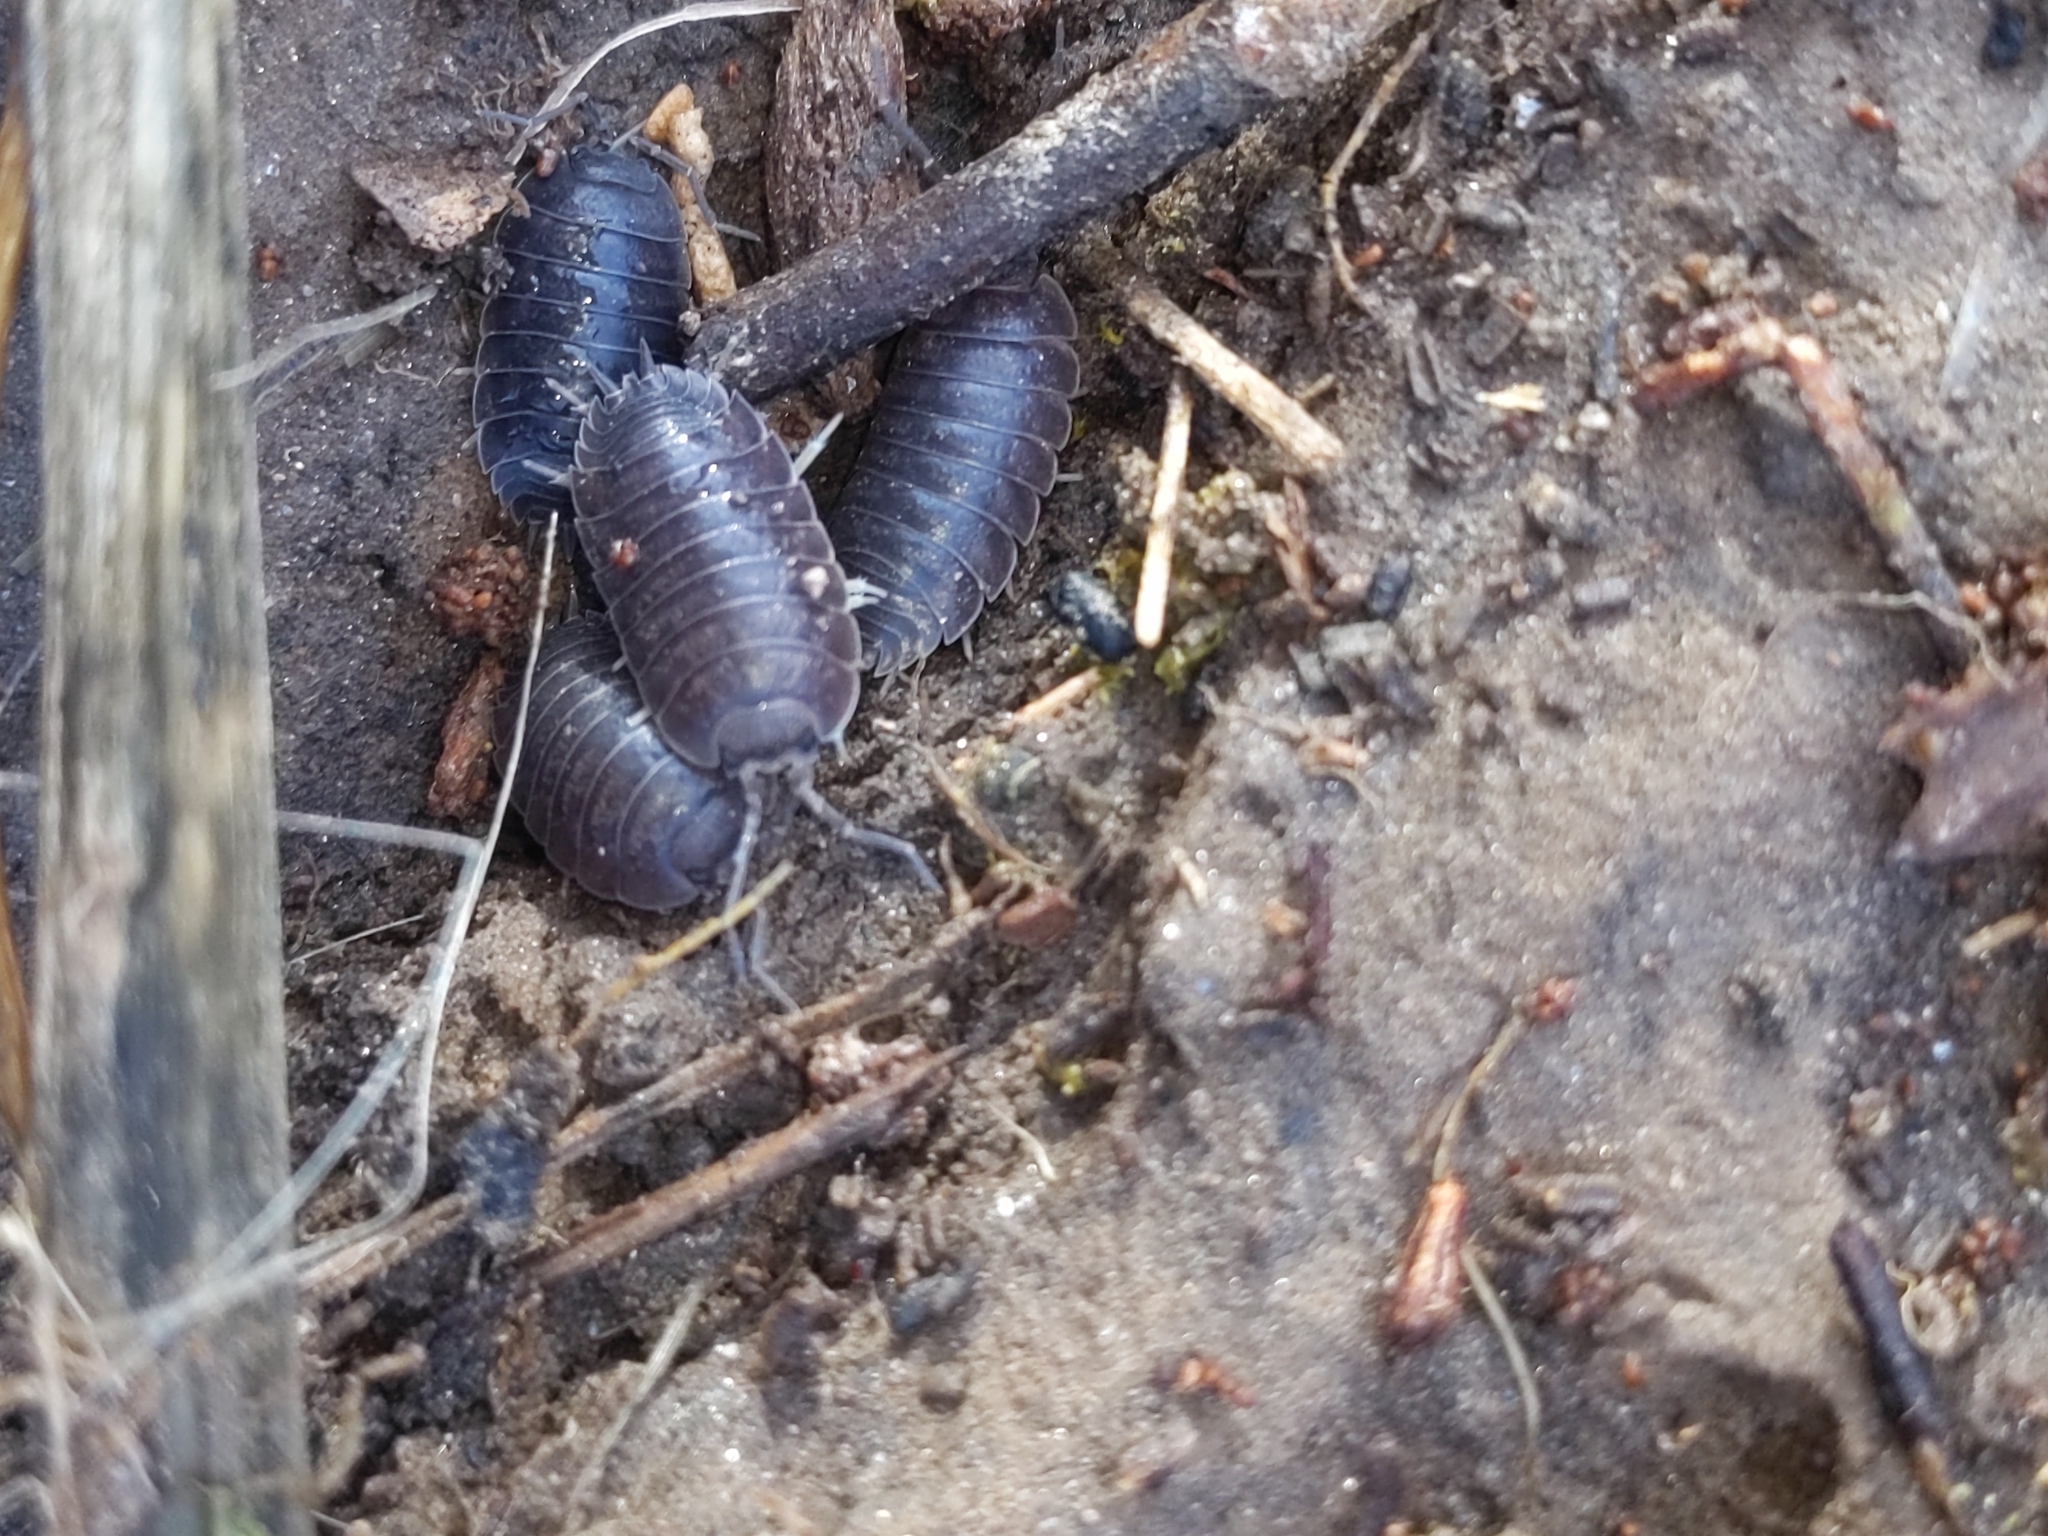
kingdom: Animalia
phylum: Arthropoda
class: Malacostraca
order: Isopoda
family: Porcellionidae
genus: Porcellio
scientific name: Porcellio laevis
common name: Swift woodlouse
